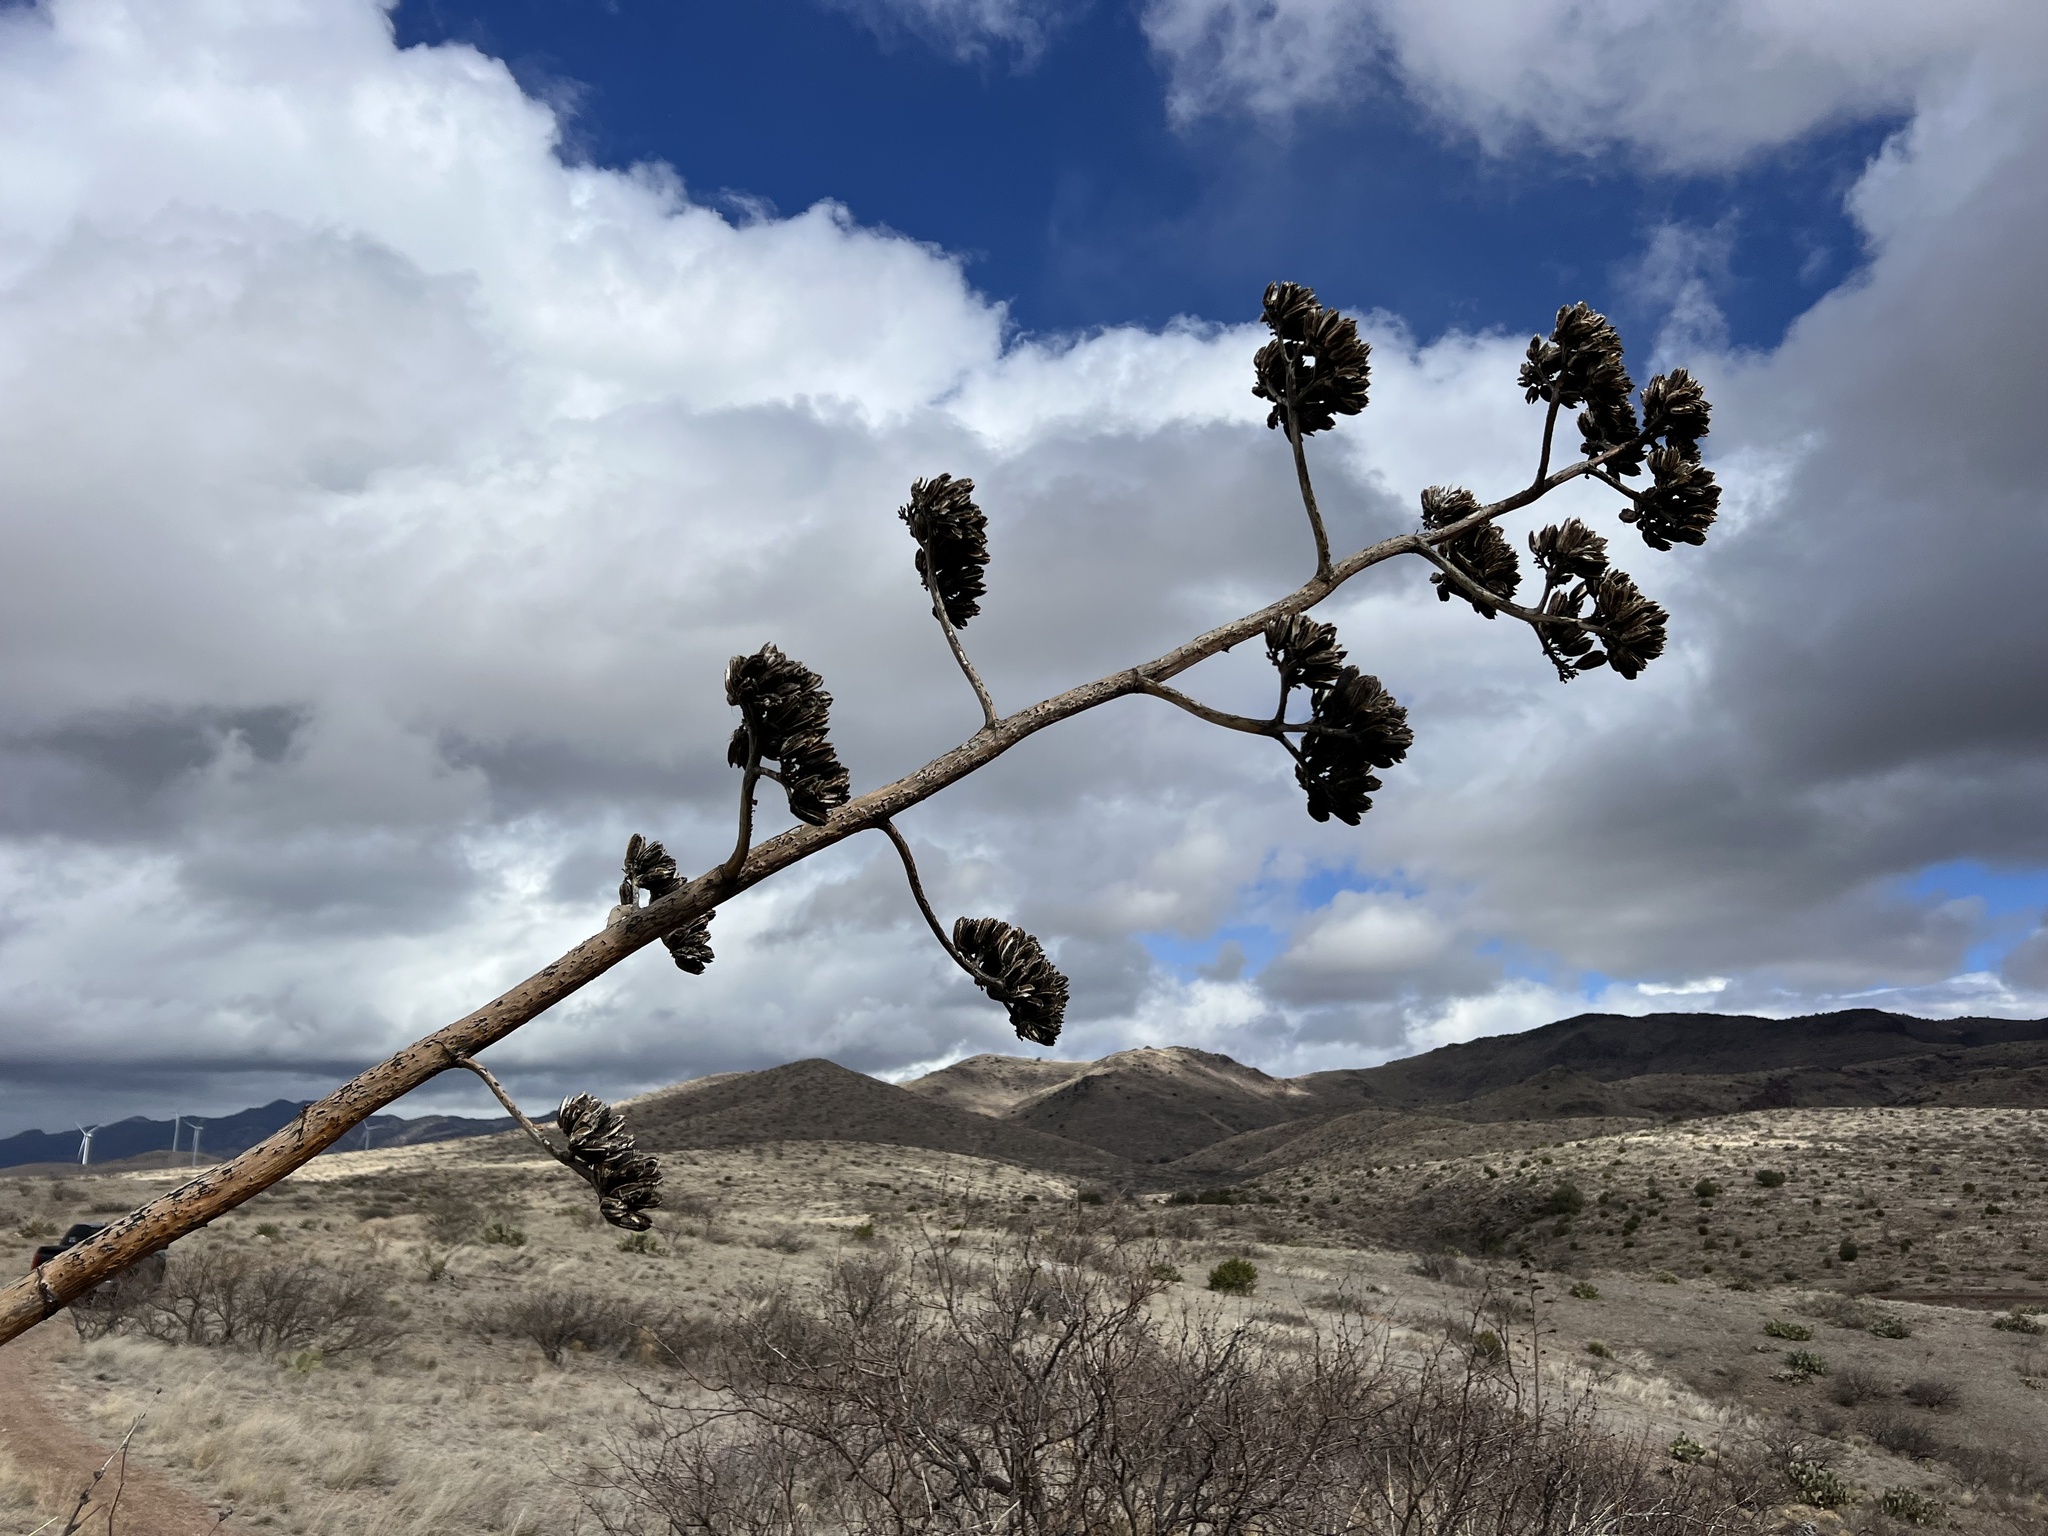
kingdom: Plantae
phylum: Tracheophyta
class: Liliopsida
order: Asparagales
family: Asparagaceae
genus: Agave
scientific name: Agave palmeri
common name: Palmer agave
